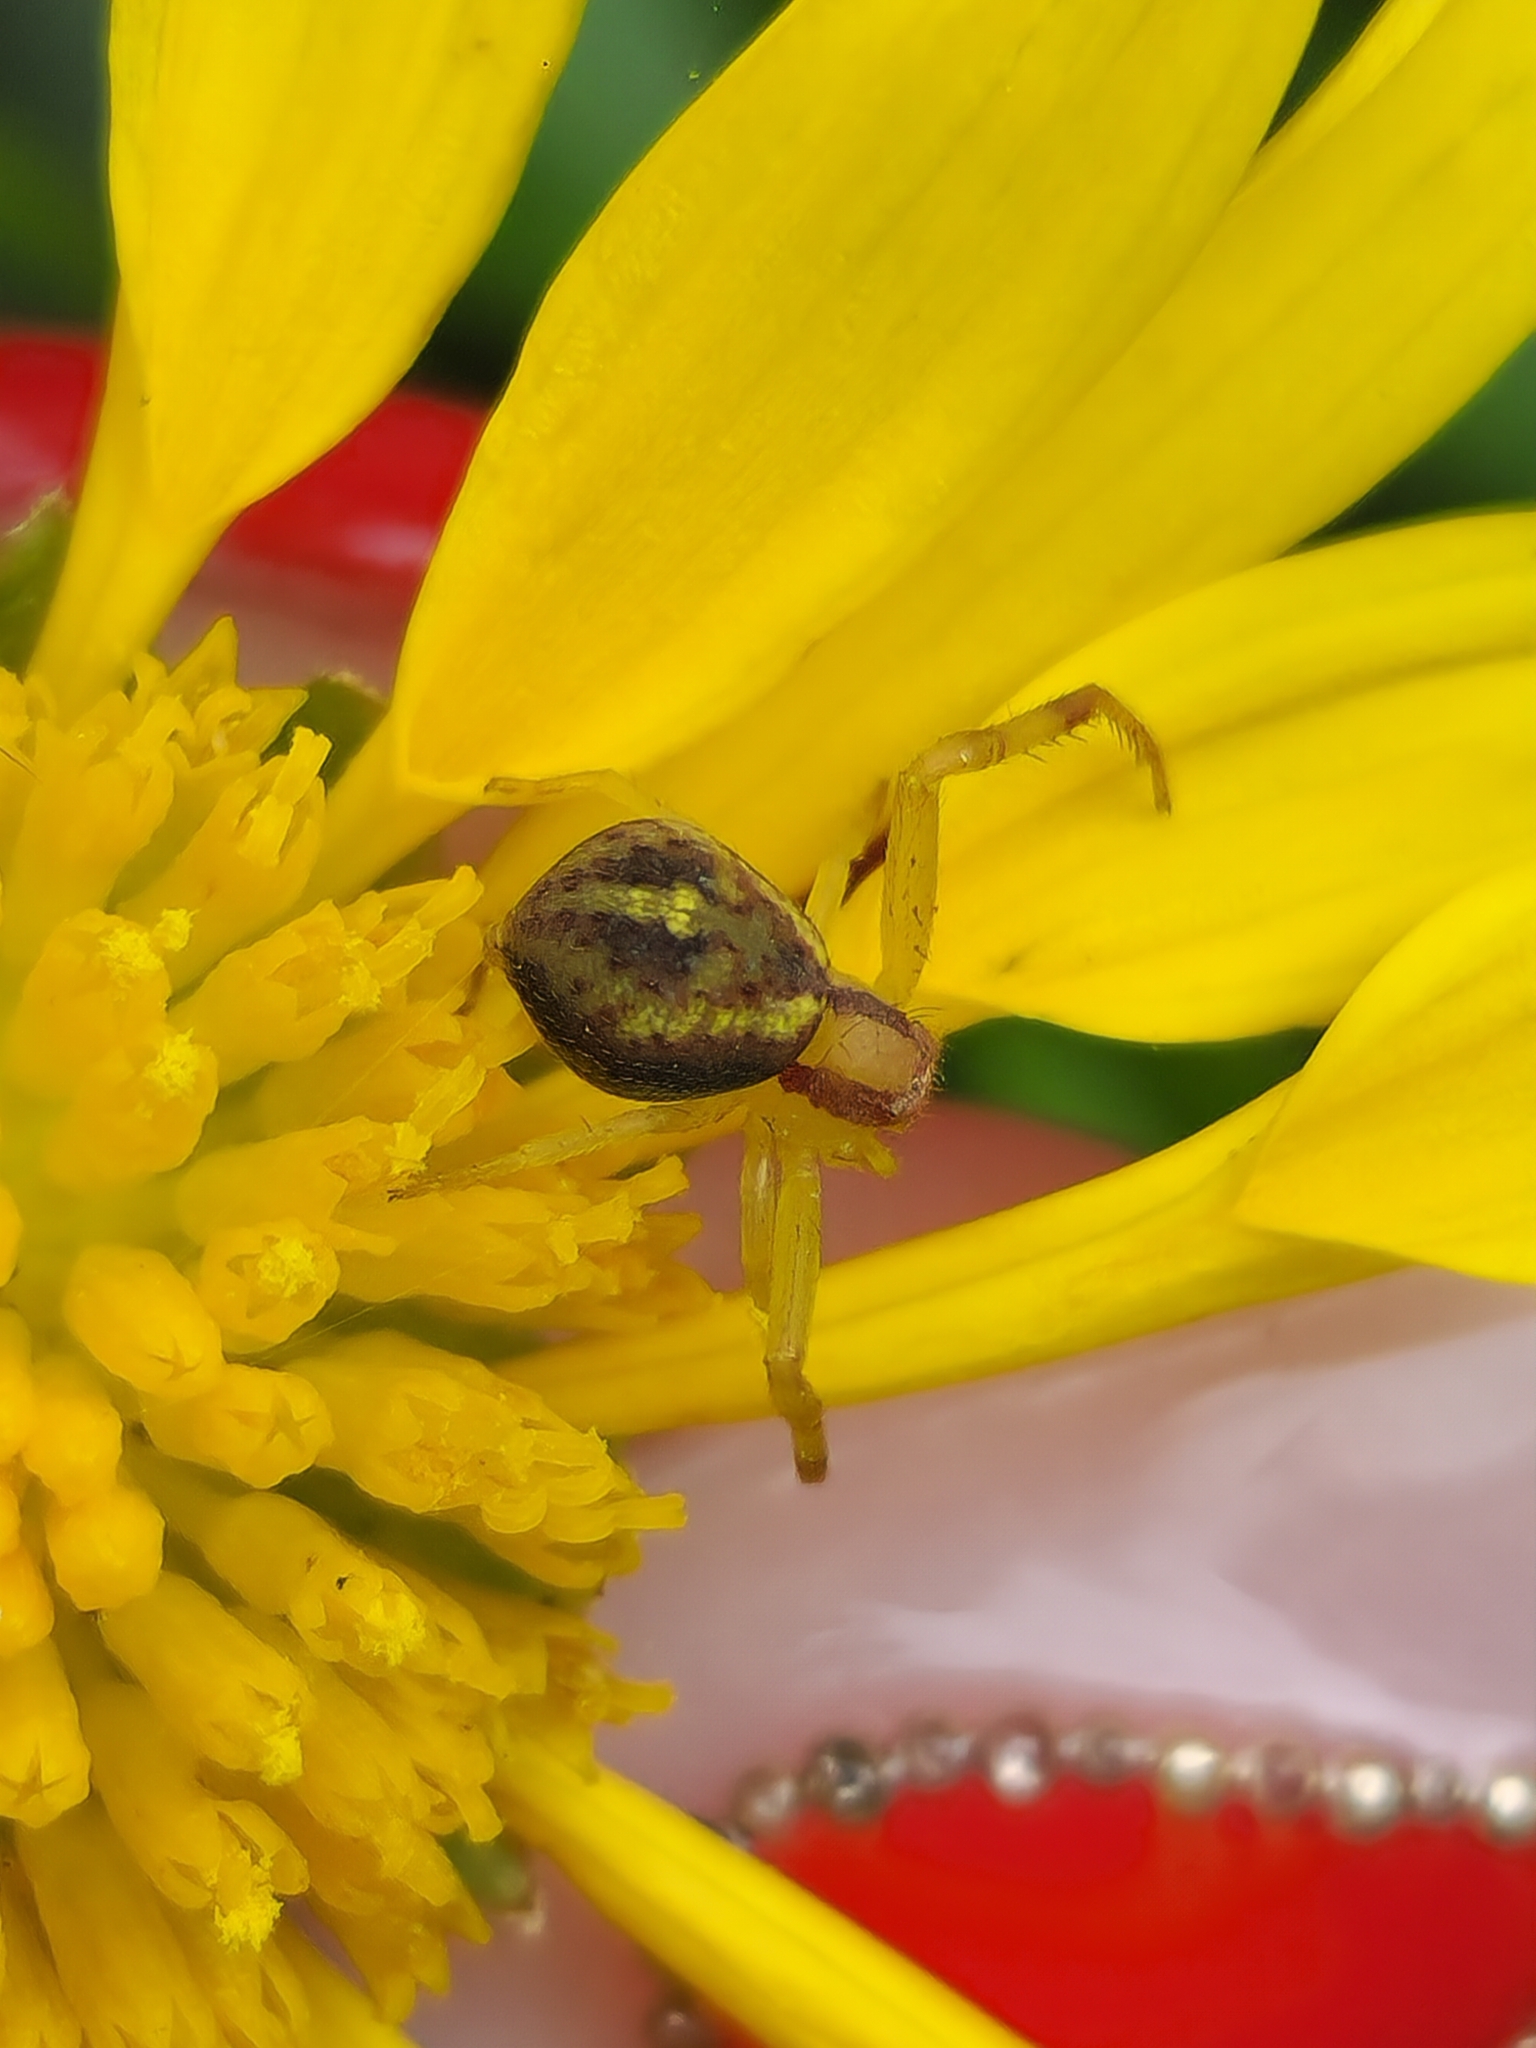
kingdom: Animalia
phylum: Arthropoda
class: Arachnida
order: Araneae
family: Thomisidae
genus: Misumenops
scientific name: Misumenops
